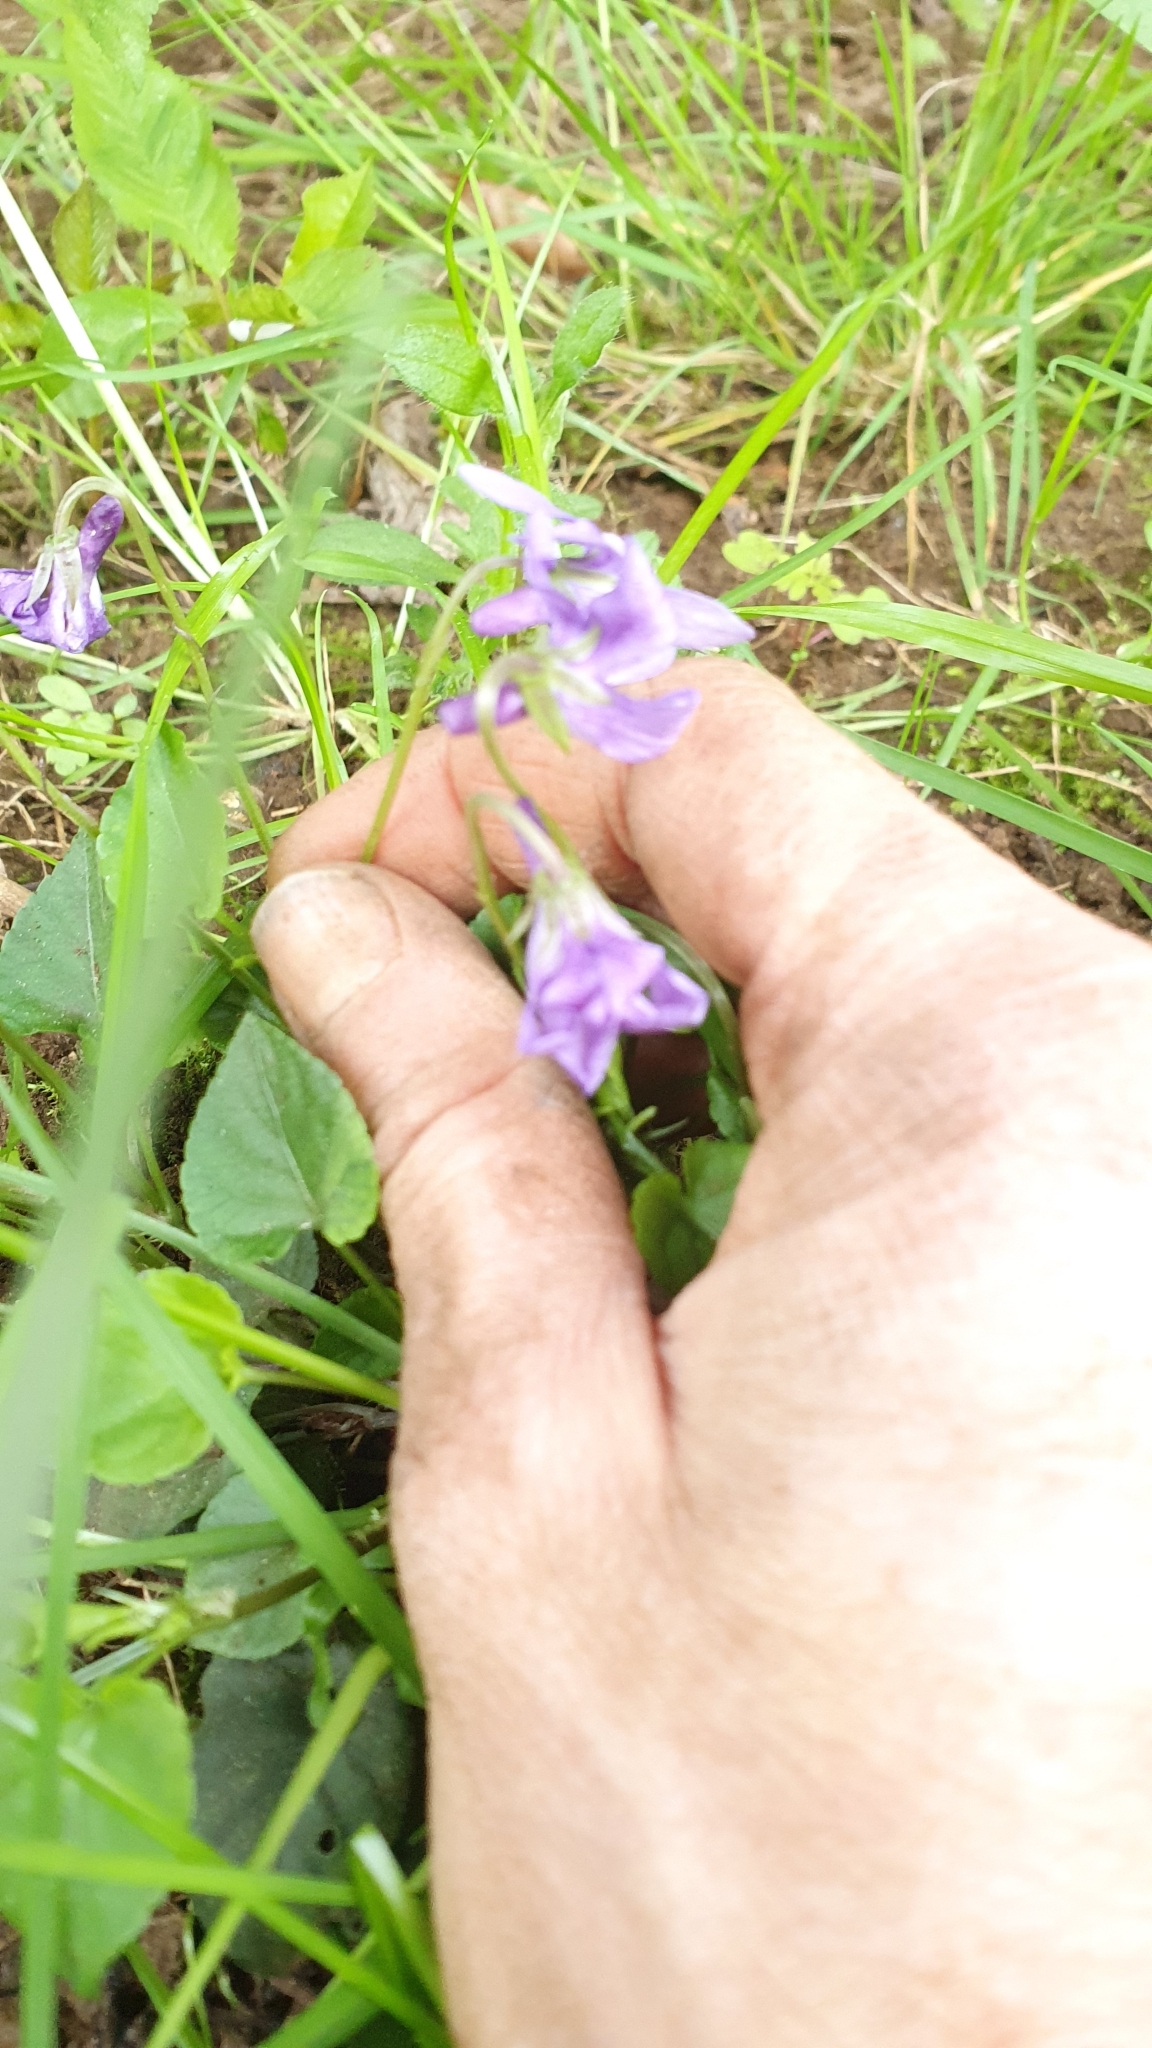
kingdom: Plantae
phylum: Tracheophyta
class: Magnoliopsida
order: Malpighiales
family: Violaceae
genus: Viola
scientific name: Viola reichenbachiana
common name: Early dog-violet
